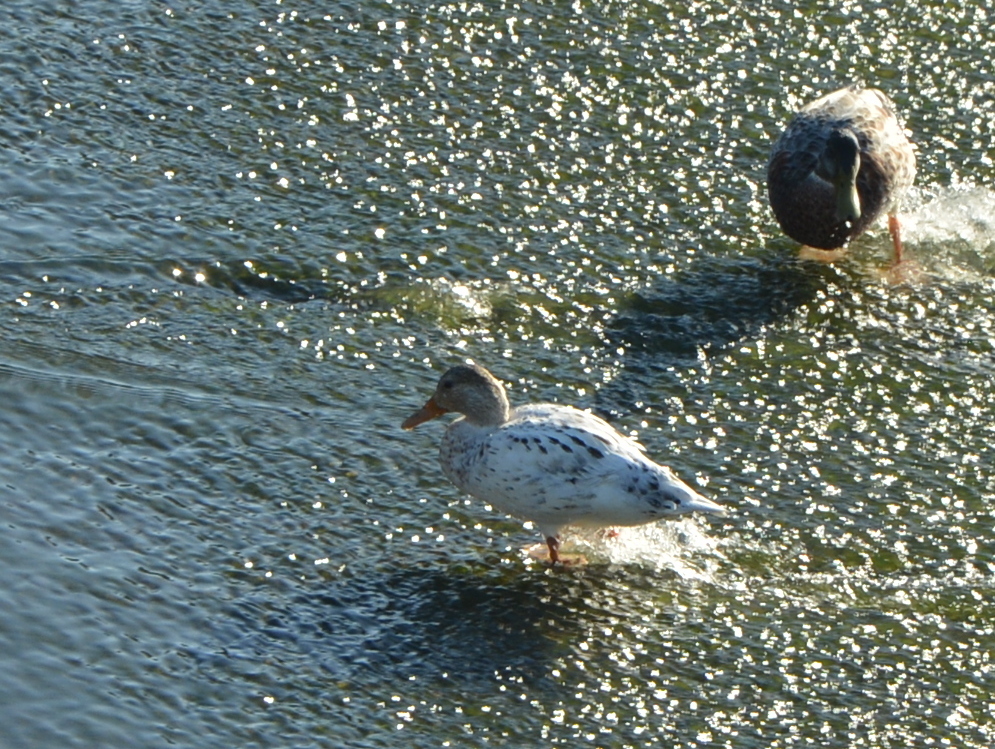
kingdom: Animalia
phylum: Chordata
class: Aves
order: Anseriformes
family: Anatidae
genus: Anas
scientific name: Anas platyrhynchos
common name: Mallard
